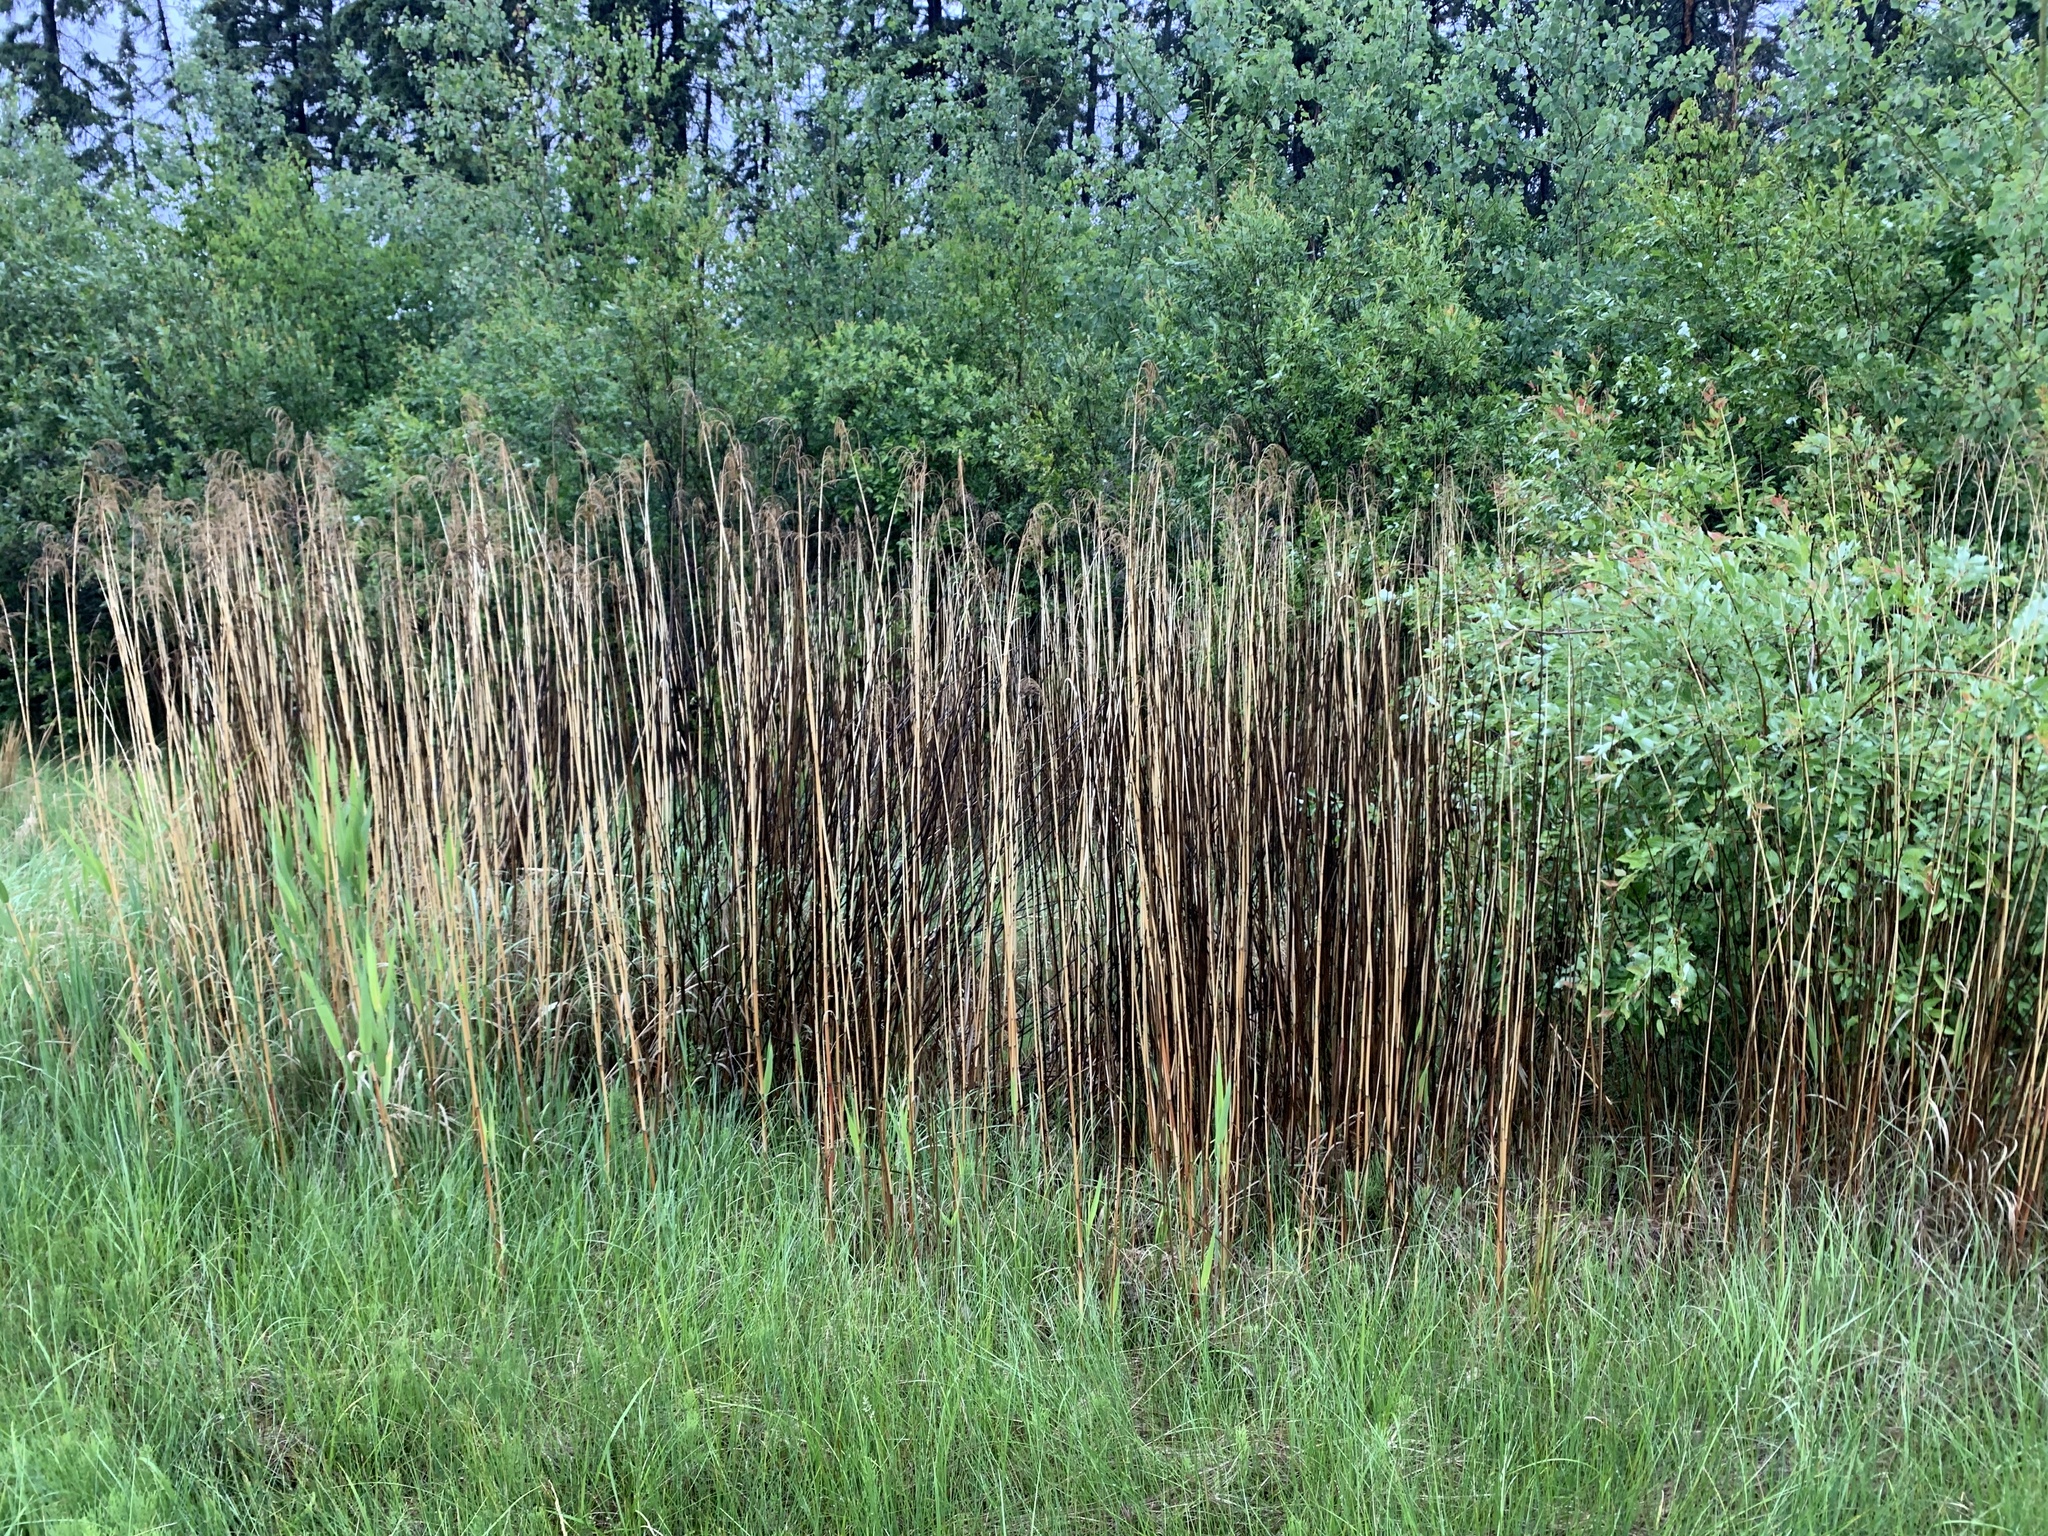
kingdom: Plantae
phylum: Tracheophyta
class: Liliopsida
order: Poales
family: Poaceae
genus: Phragmites
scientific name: Phragmites australis
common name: Common reed
